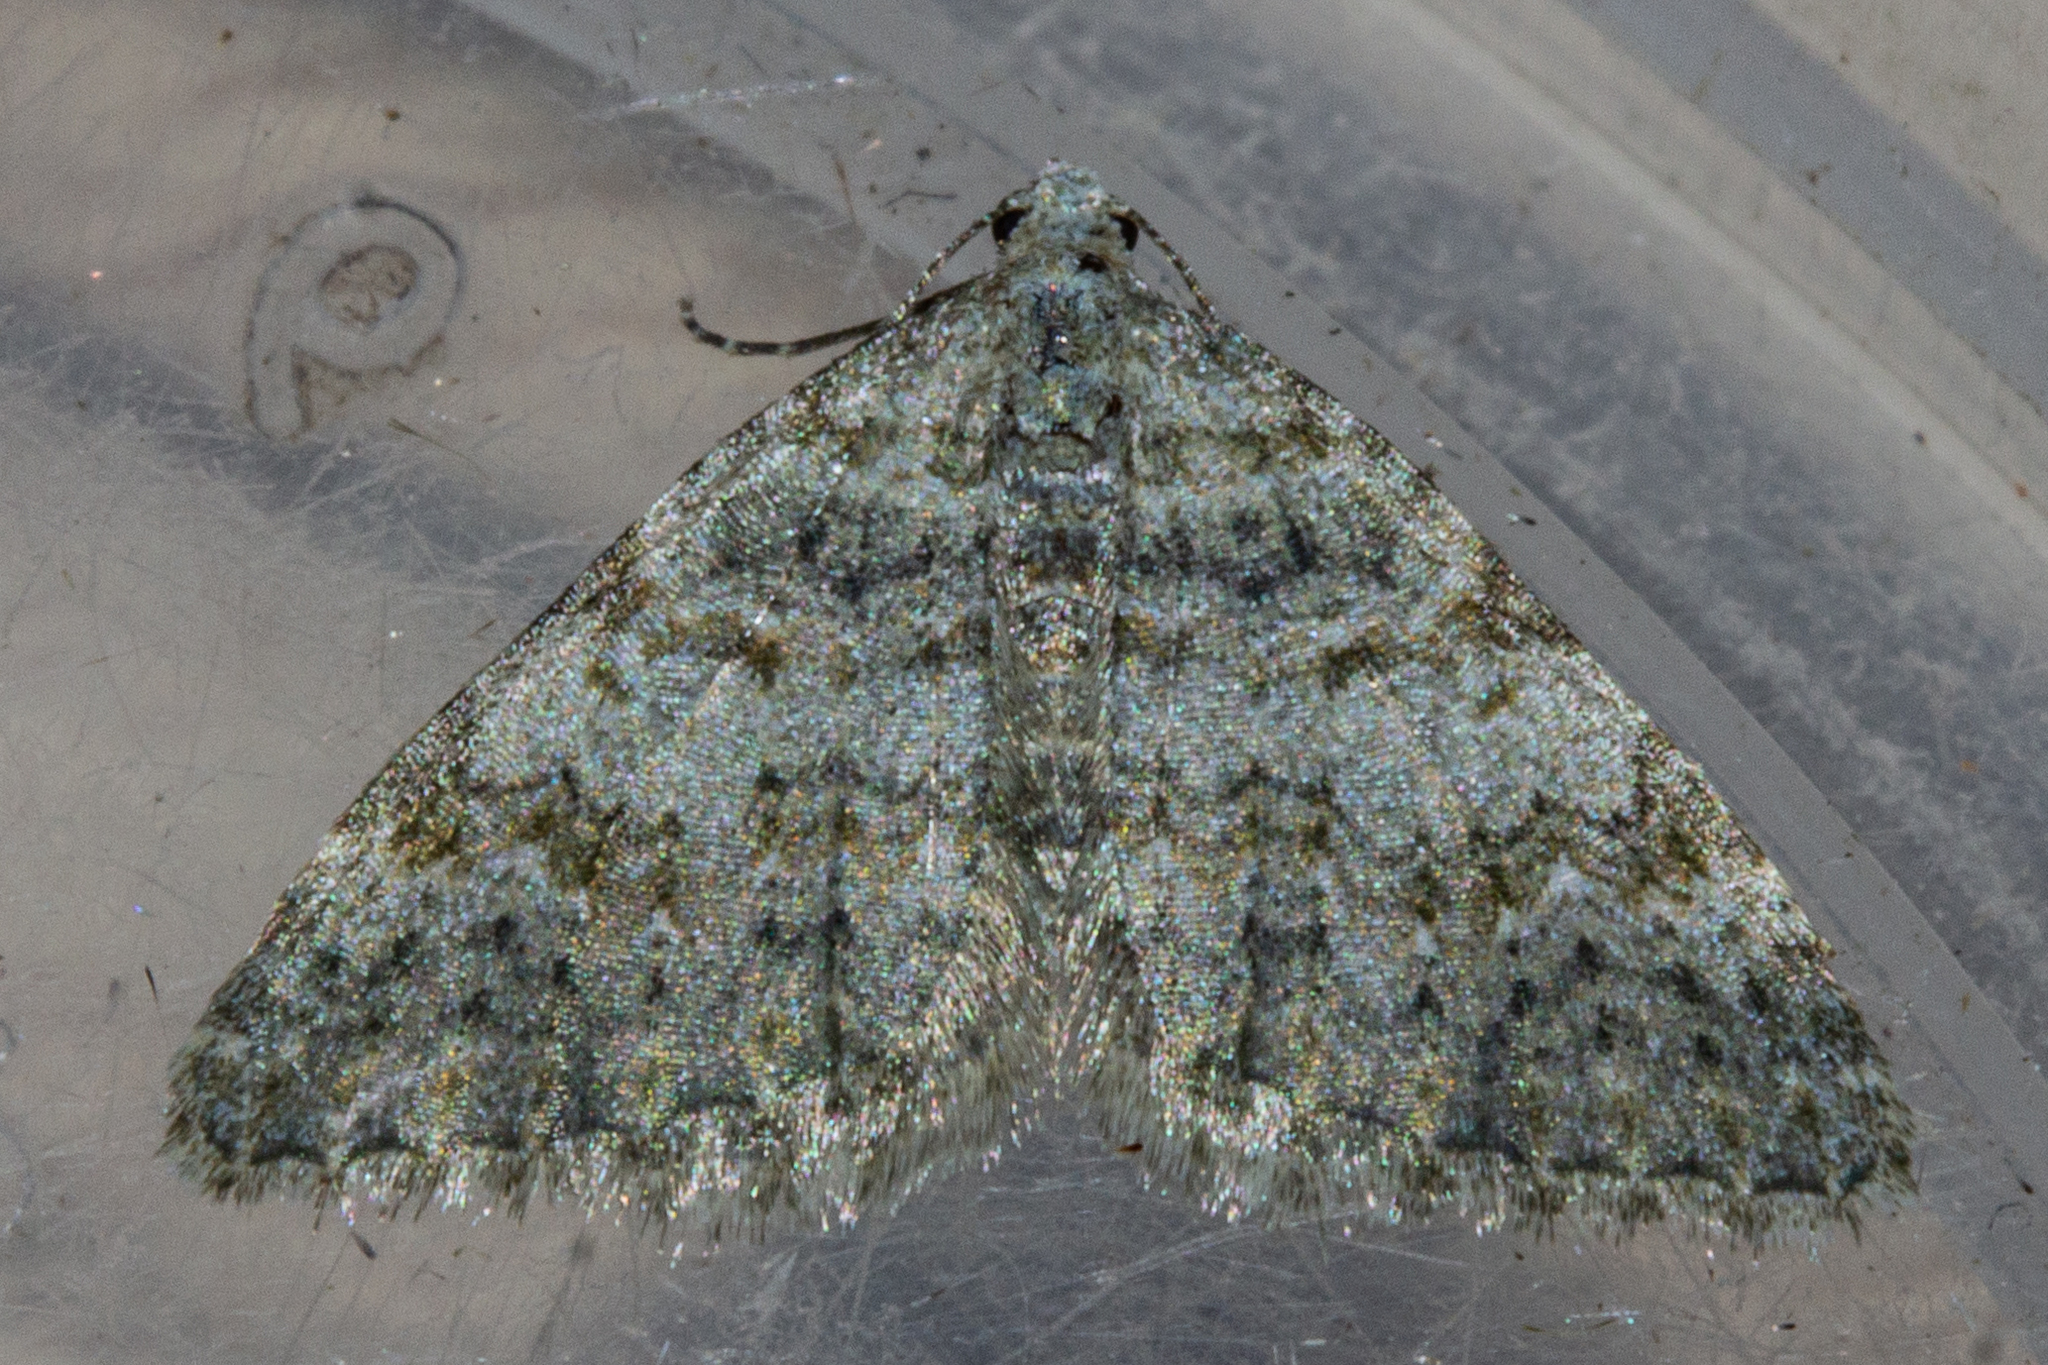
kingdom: Animalia
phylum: Arthropoda
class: Insecta
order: Lepidoptera
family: Geometridae
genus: Helastia
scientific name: Helastia plumbea
